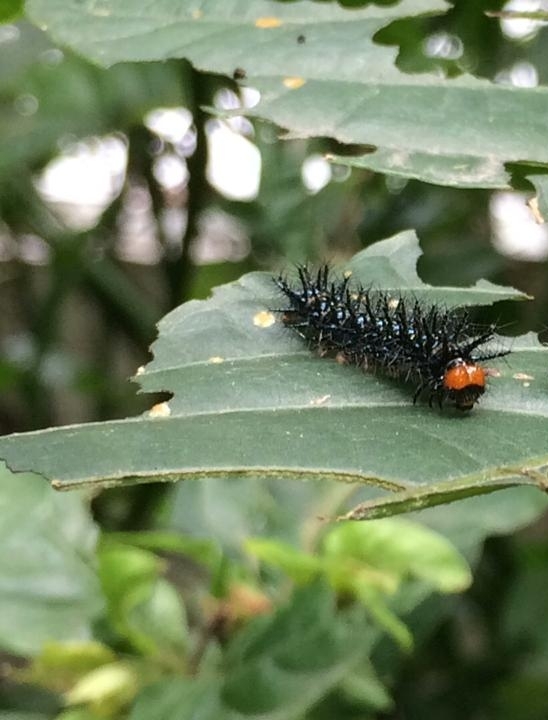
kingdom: Animalia
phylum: Arthropoda
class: Insecta
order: Lepidoptera
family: Nymphalidae
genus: Chlosyne
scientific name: Chlosyne lacinia
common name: Bordered patch
